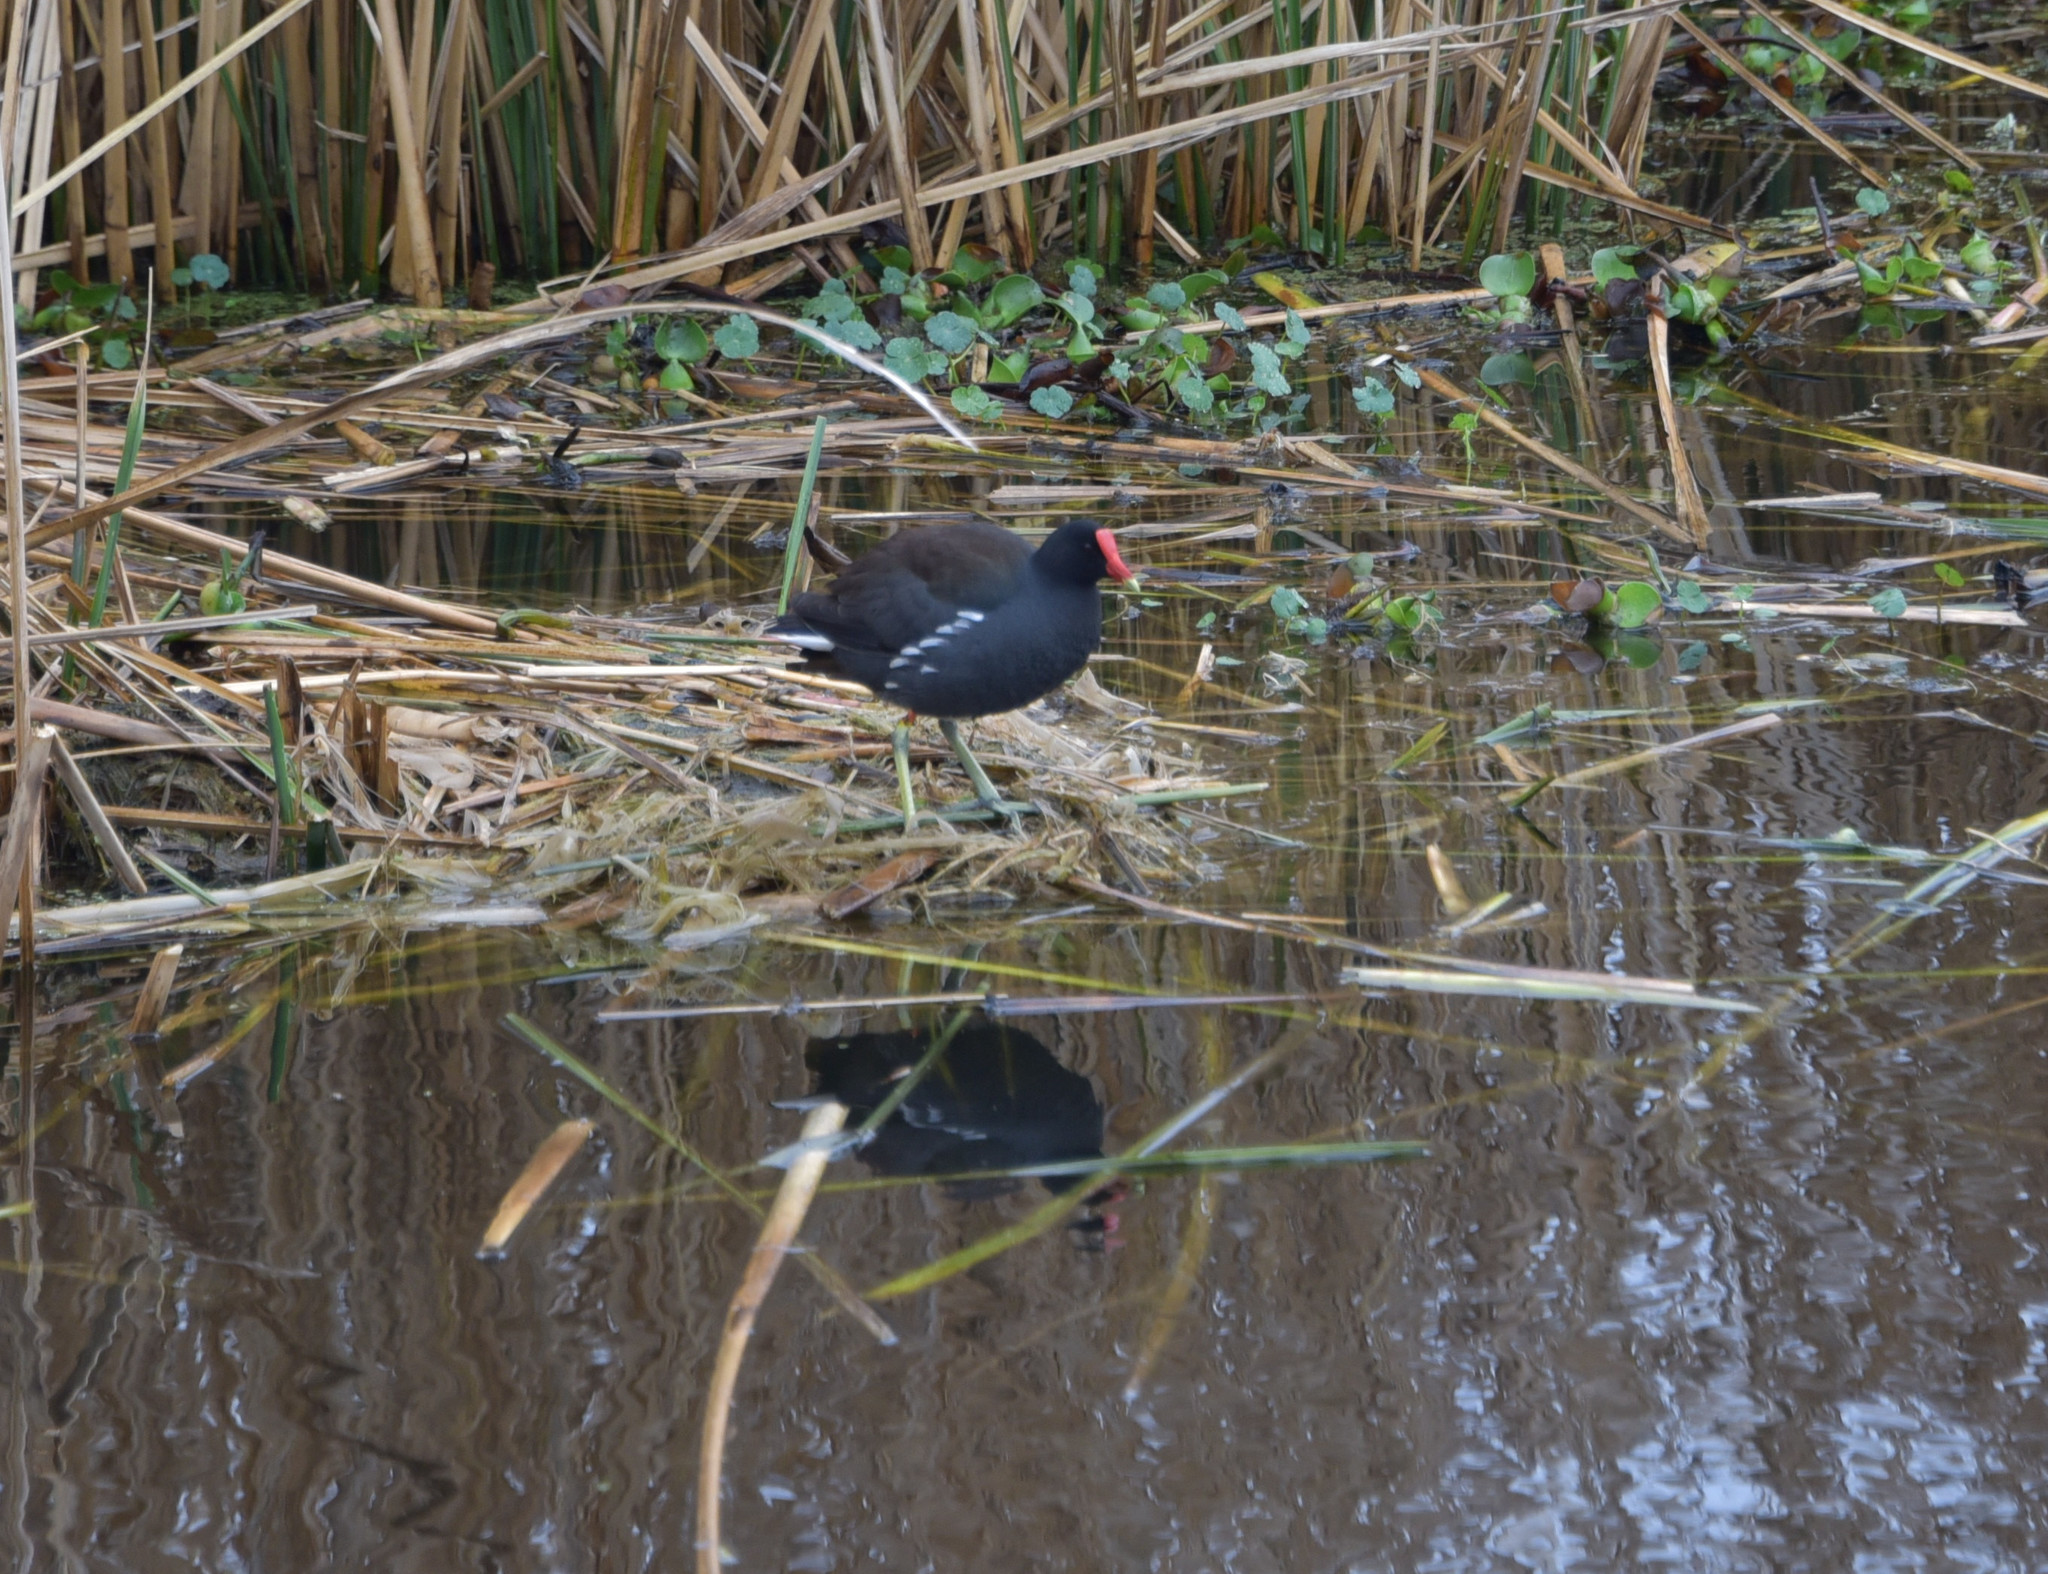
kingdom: Animalia
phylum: Chordata
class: Aves
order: Gruiformes
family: Rallidae
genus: Gallinula
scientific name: Gallinula chloropus
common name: Common moorhen
